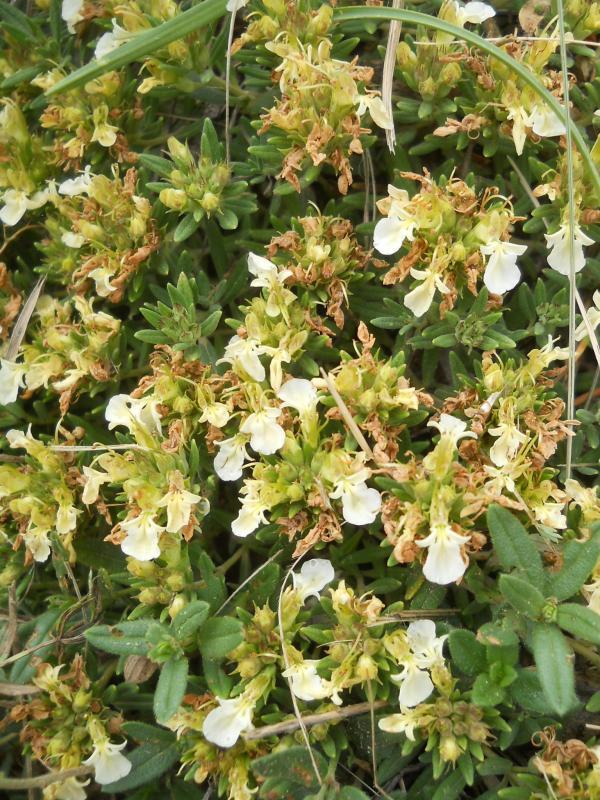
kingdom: Plantae
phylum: Tracheophyta
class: Magnoliopsida
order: Lamiales
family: Lamiaceae
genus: Teucrium
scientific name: Teucrium montanum
